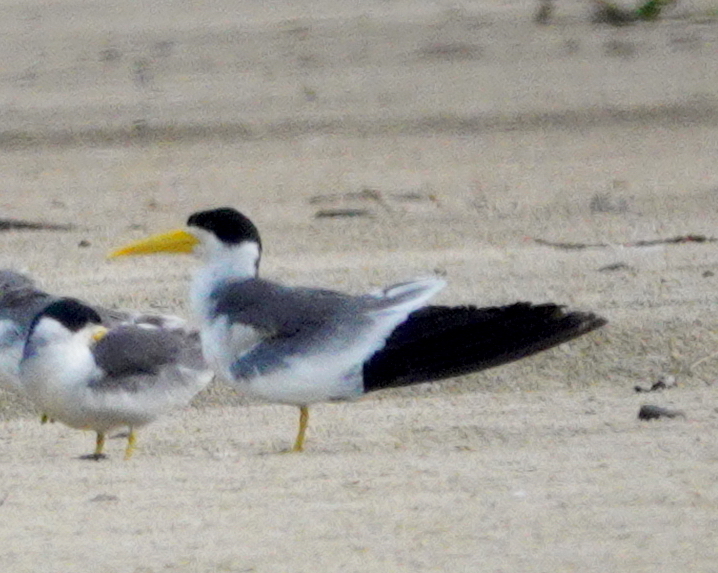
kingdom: Animalia
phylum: Chordata
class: Aves
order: Charadriiformes
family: Laridae
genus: Phaetusa
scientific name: Phaetusa simplex
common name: Large-billed tern
